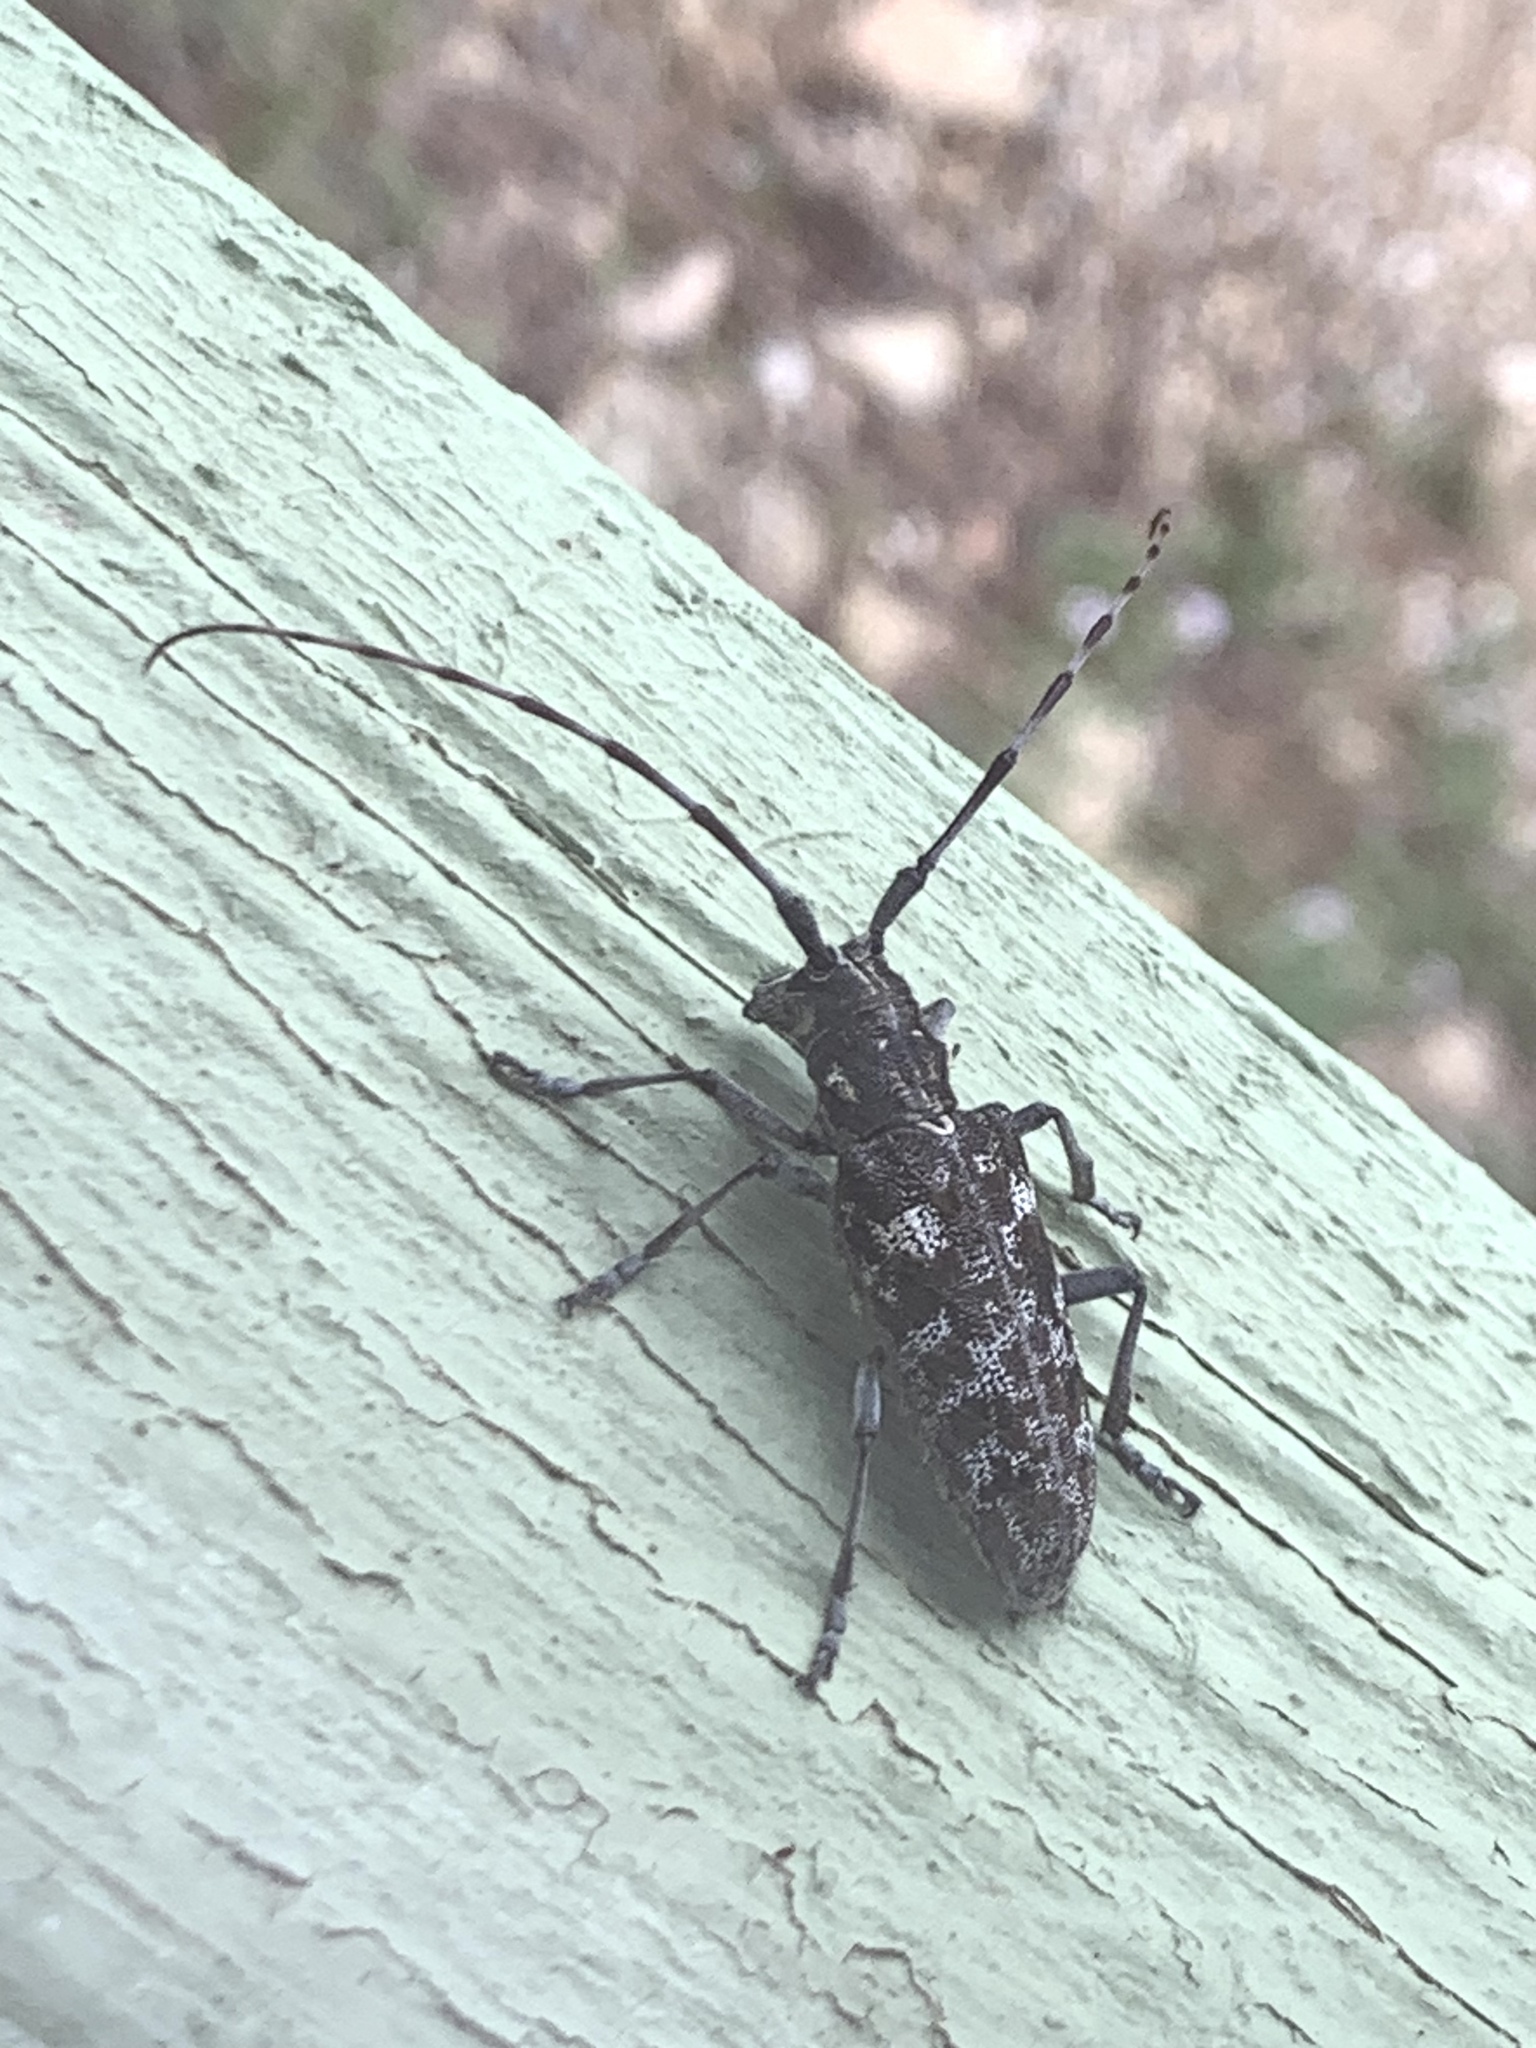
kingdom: Animalia
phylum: Arthropoda
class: Insecta
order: Coleoptera
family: Cerambycidae
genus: Monochamus
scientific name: Monochamus clamator
